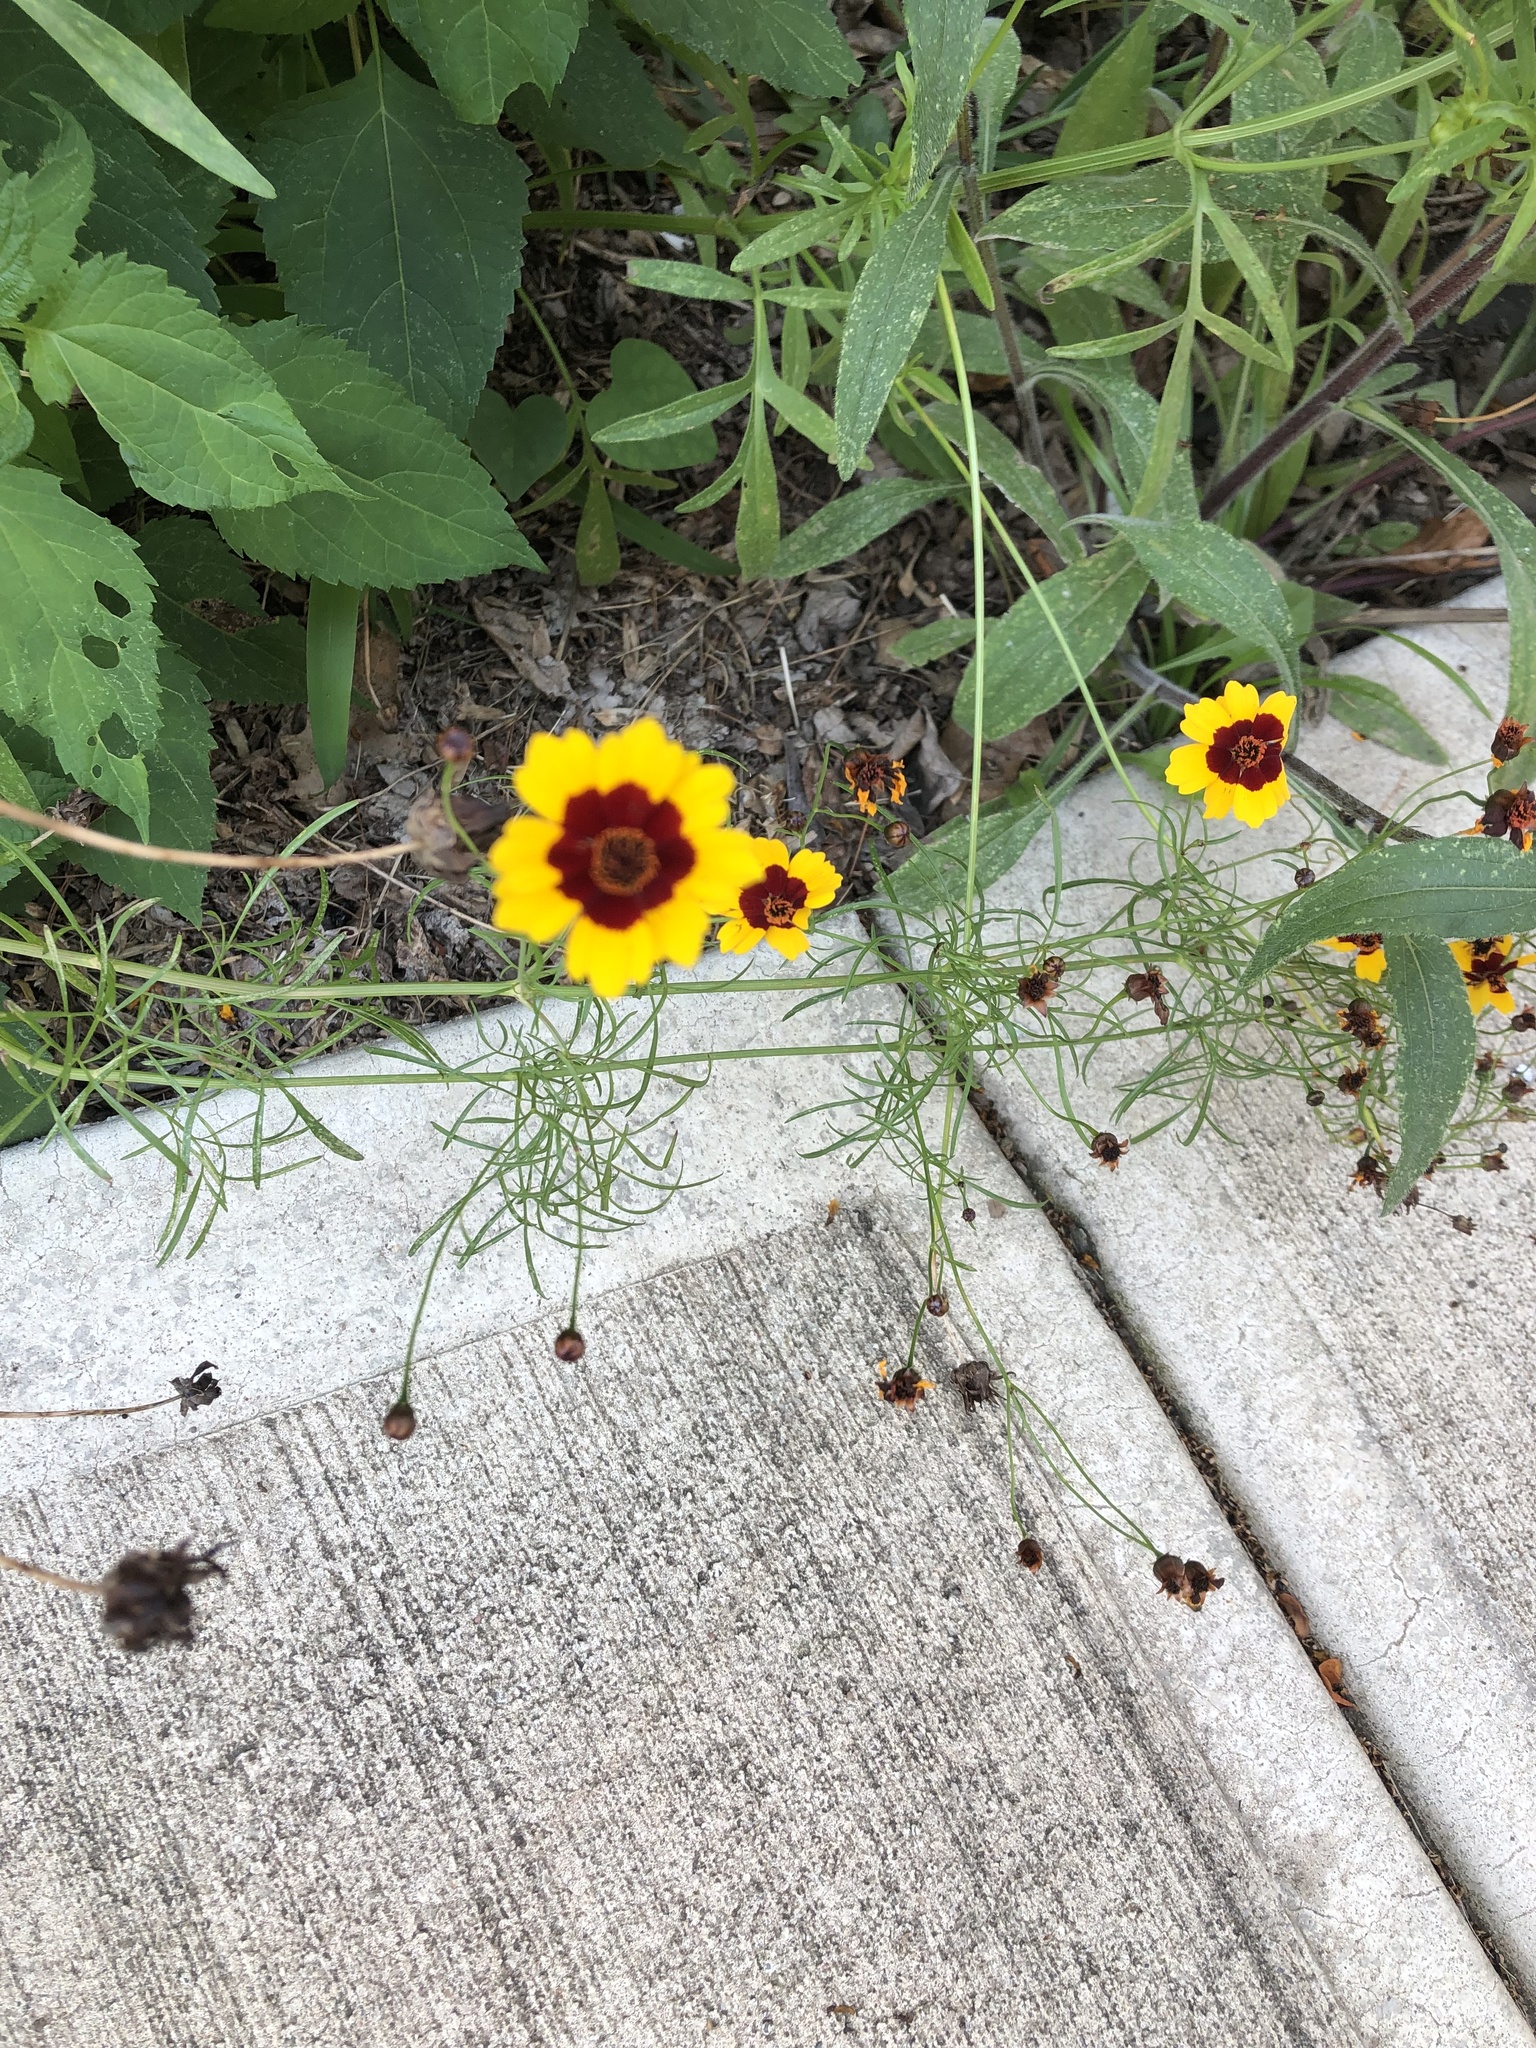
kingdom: Plantae
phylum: Tracheophyta
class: Magnoliopsida
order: Asterales
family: Asteraceae
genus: Coreopsis
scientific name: Coreopsis tinctoria
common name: Garden tickseed
